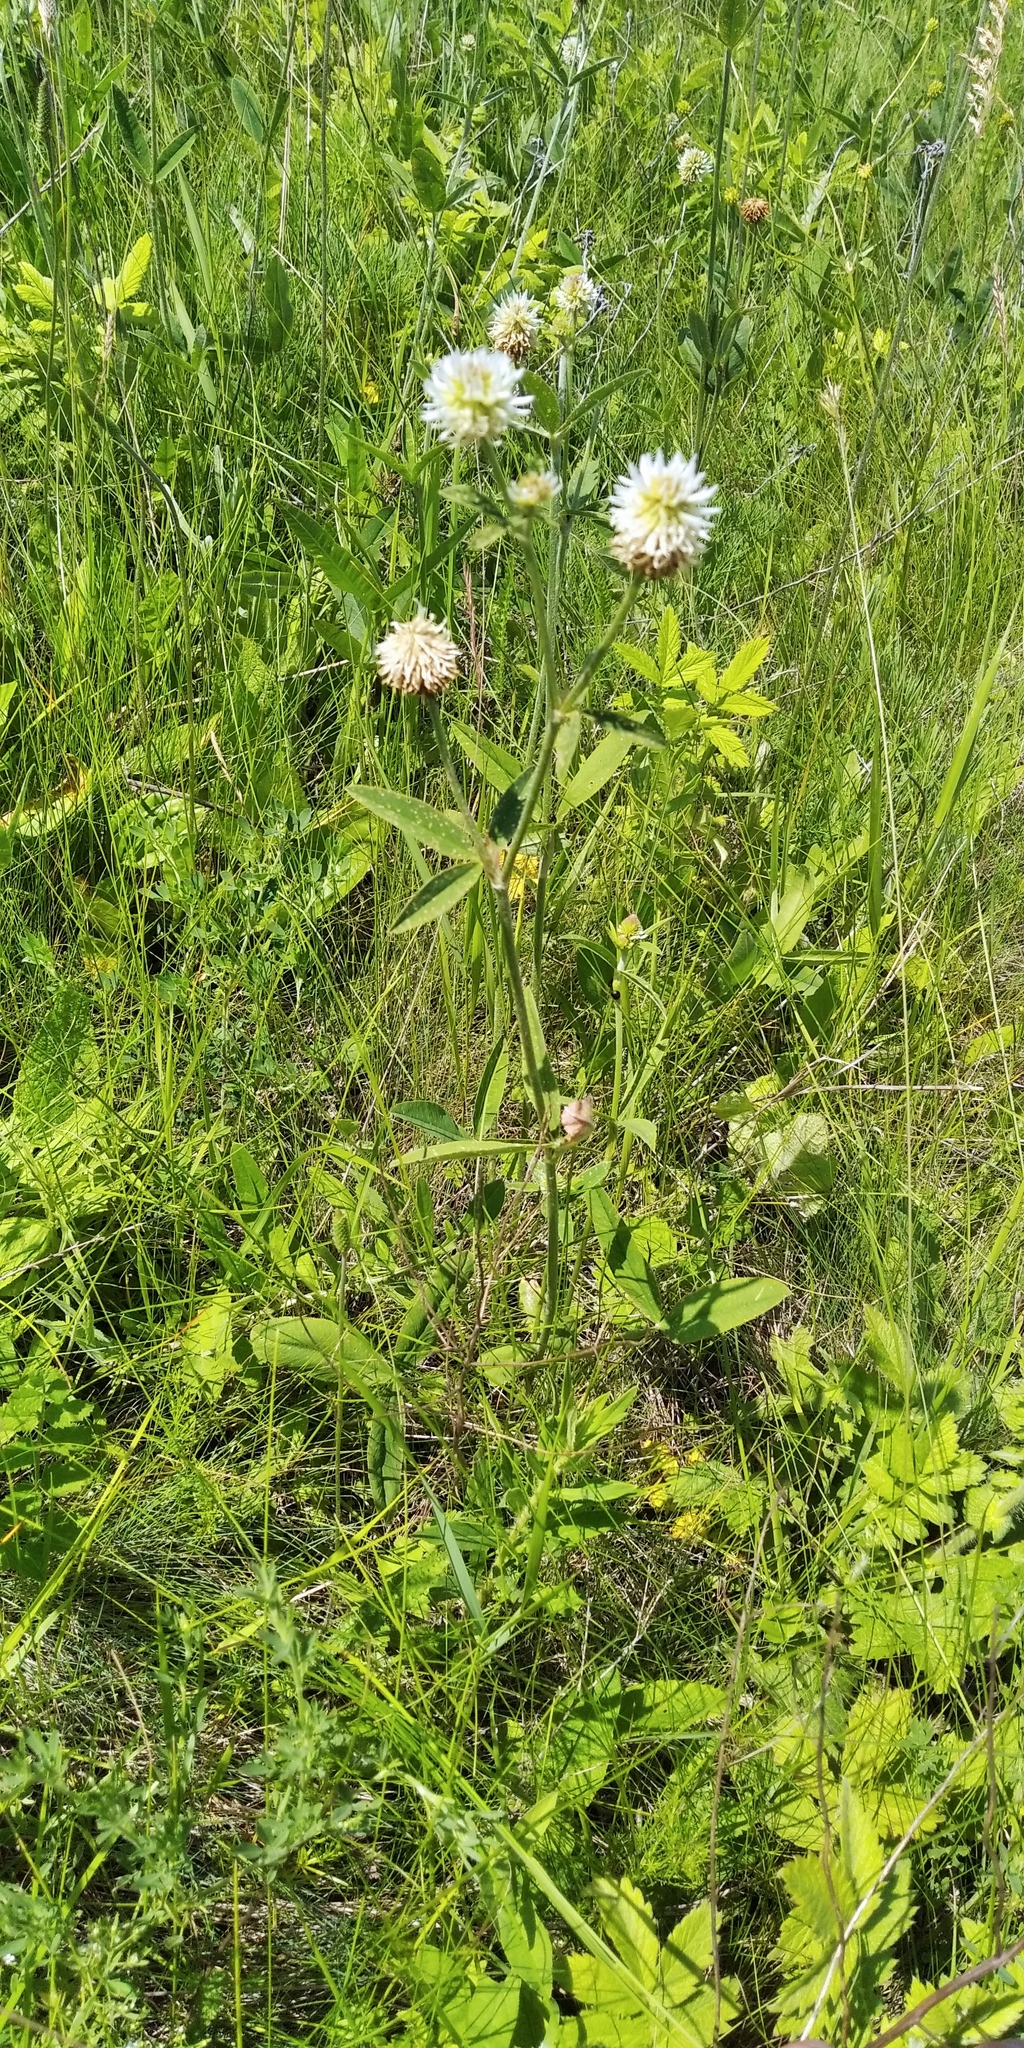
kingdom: Plantae
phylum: Tracheophyta
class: Magnoliopsida
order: Fabales
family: Fabaceae
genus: Trifolium
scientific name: Trifolium montanum
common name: Mountain clover
